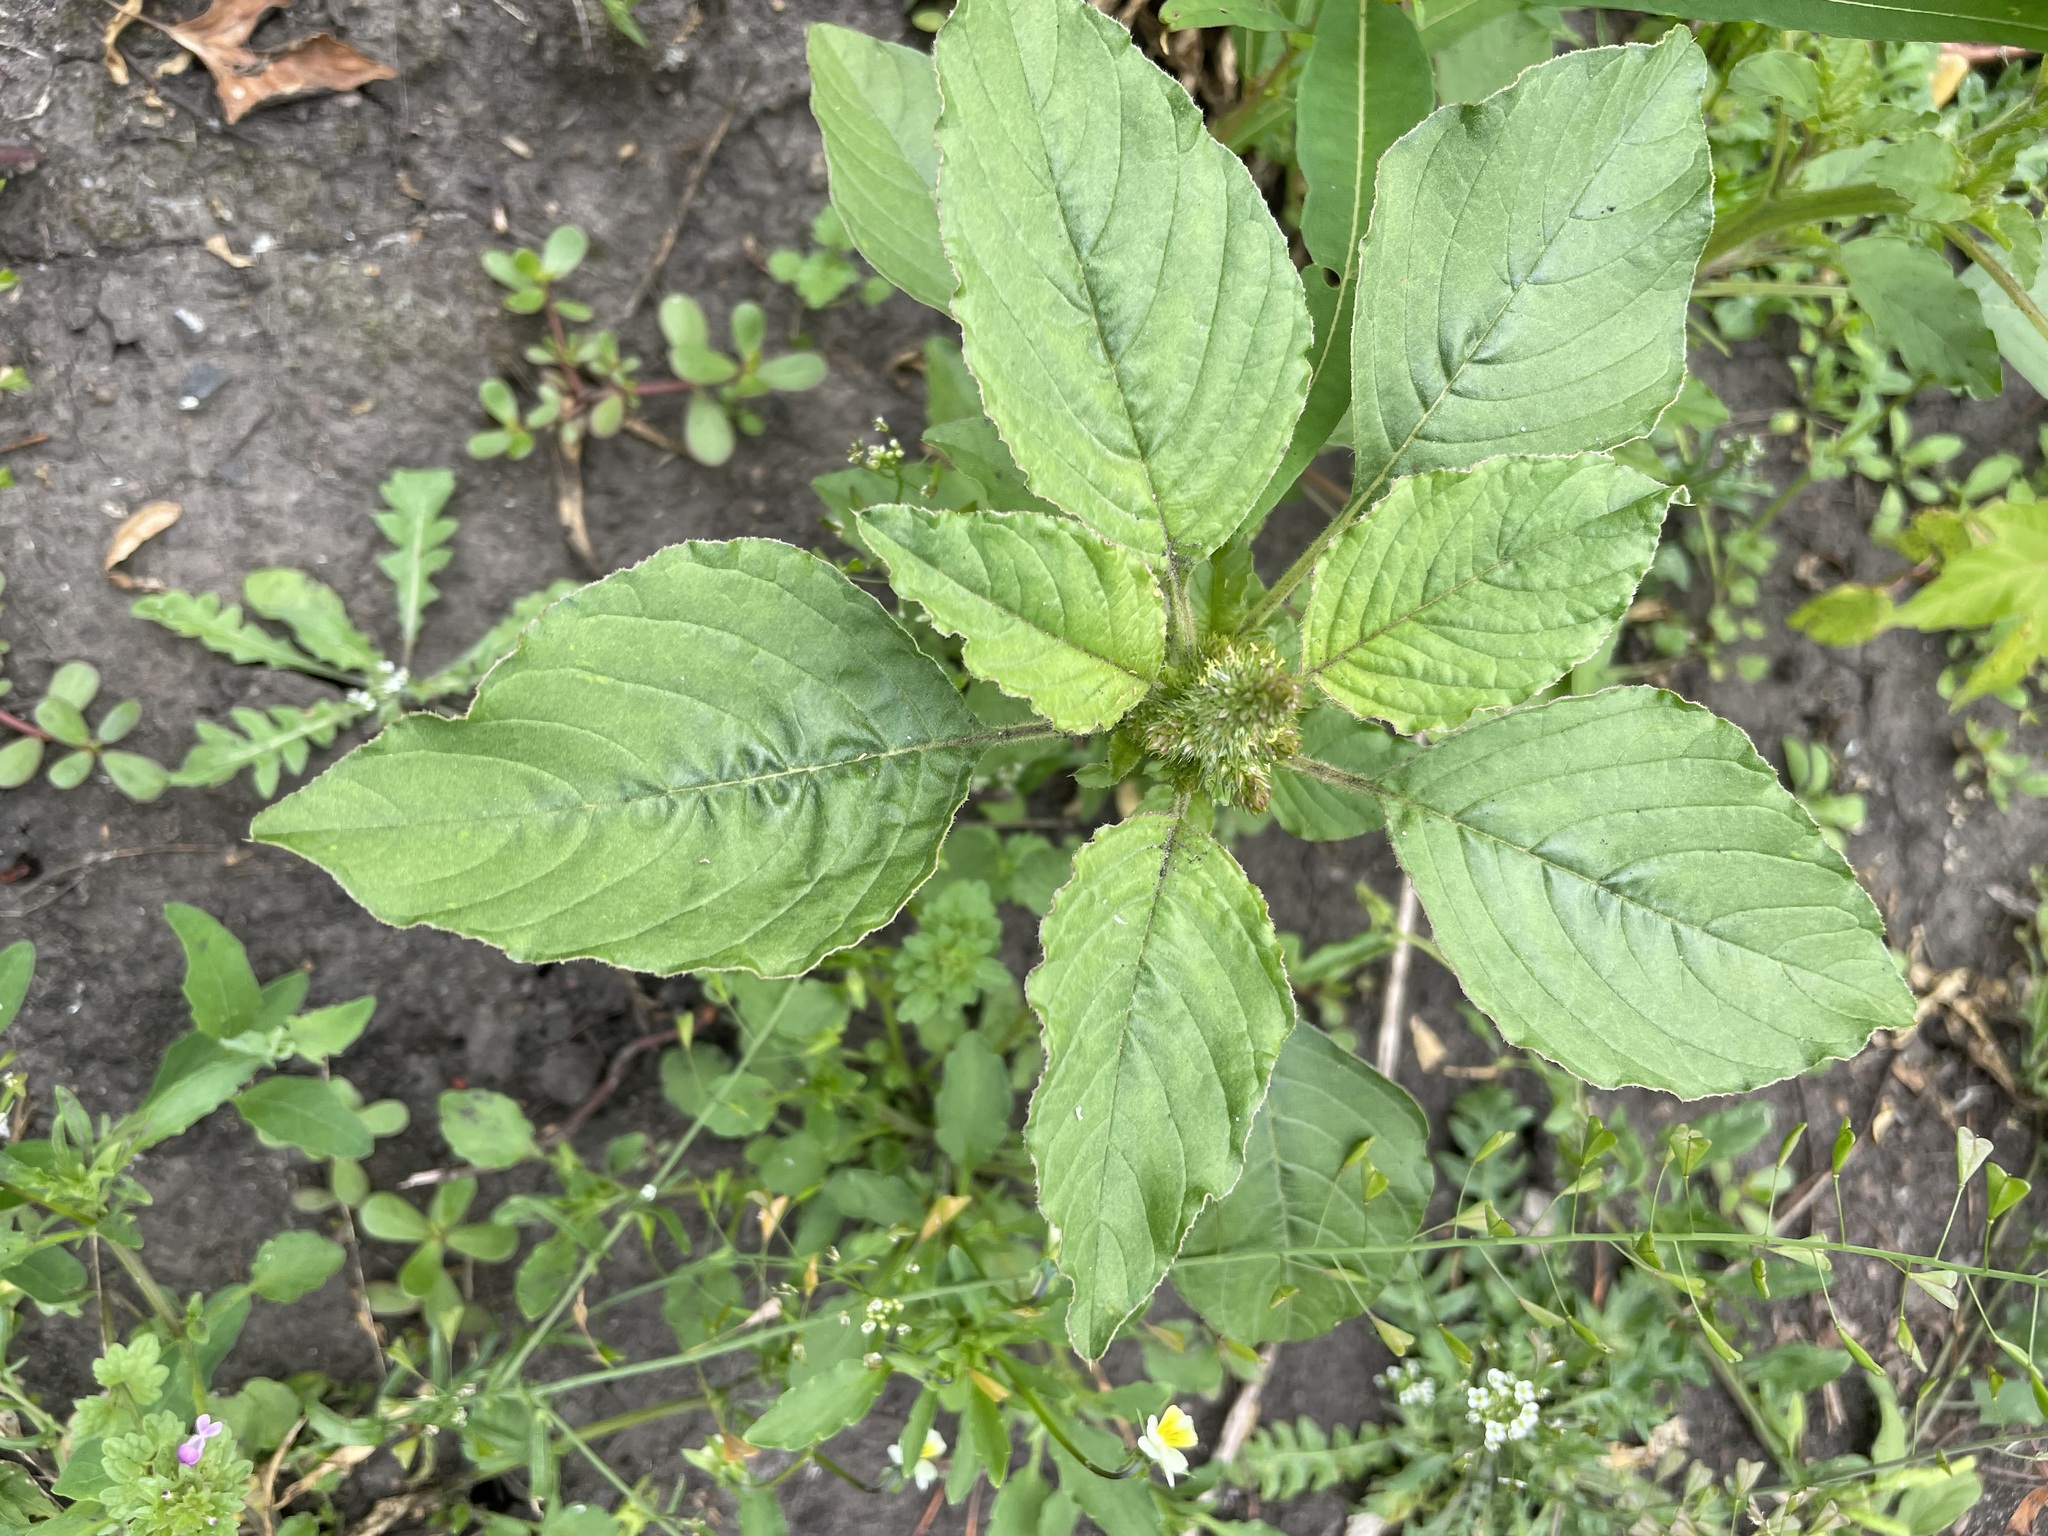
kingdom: Plantae
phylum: Tracheophyta
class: Magnoliopsida
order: Caryophyllales
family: Amaranthaceae
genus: Amaranthus
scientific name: Amaranthus retroflexus
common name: Redroot amaranth
